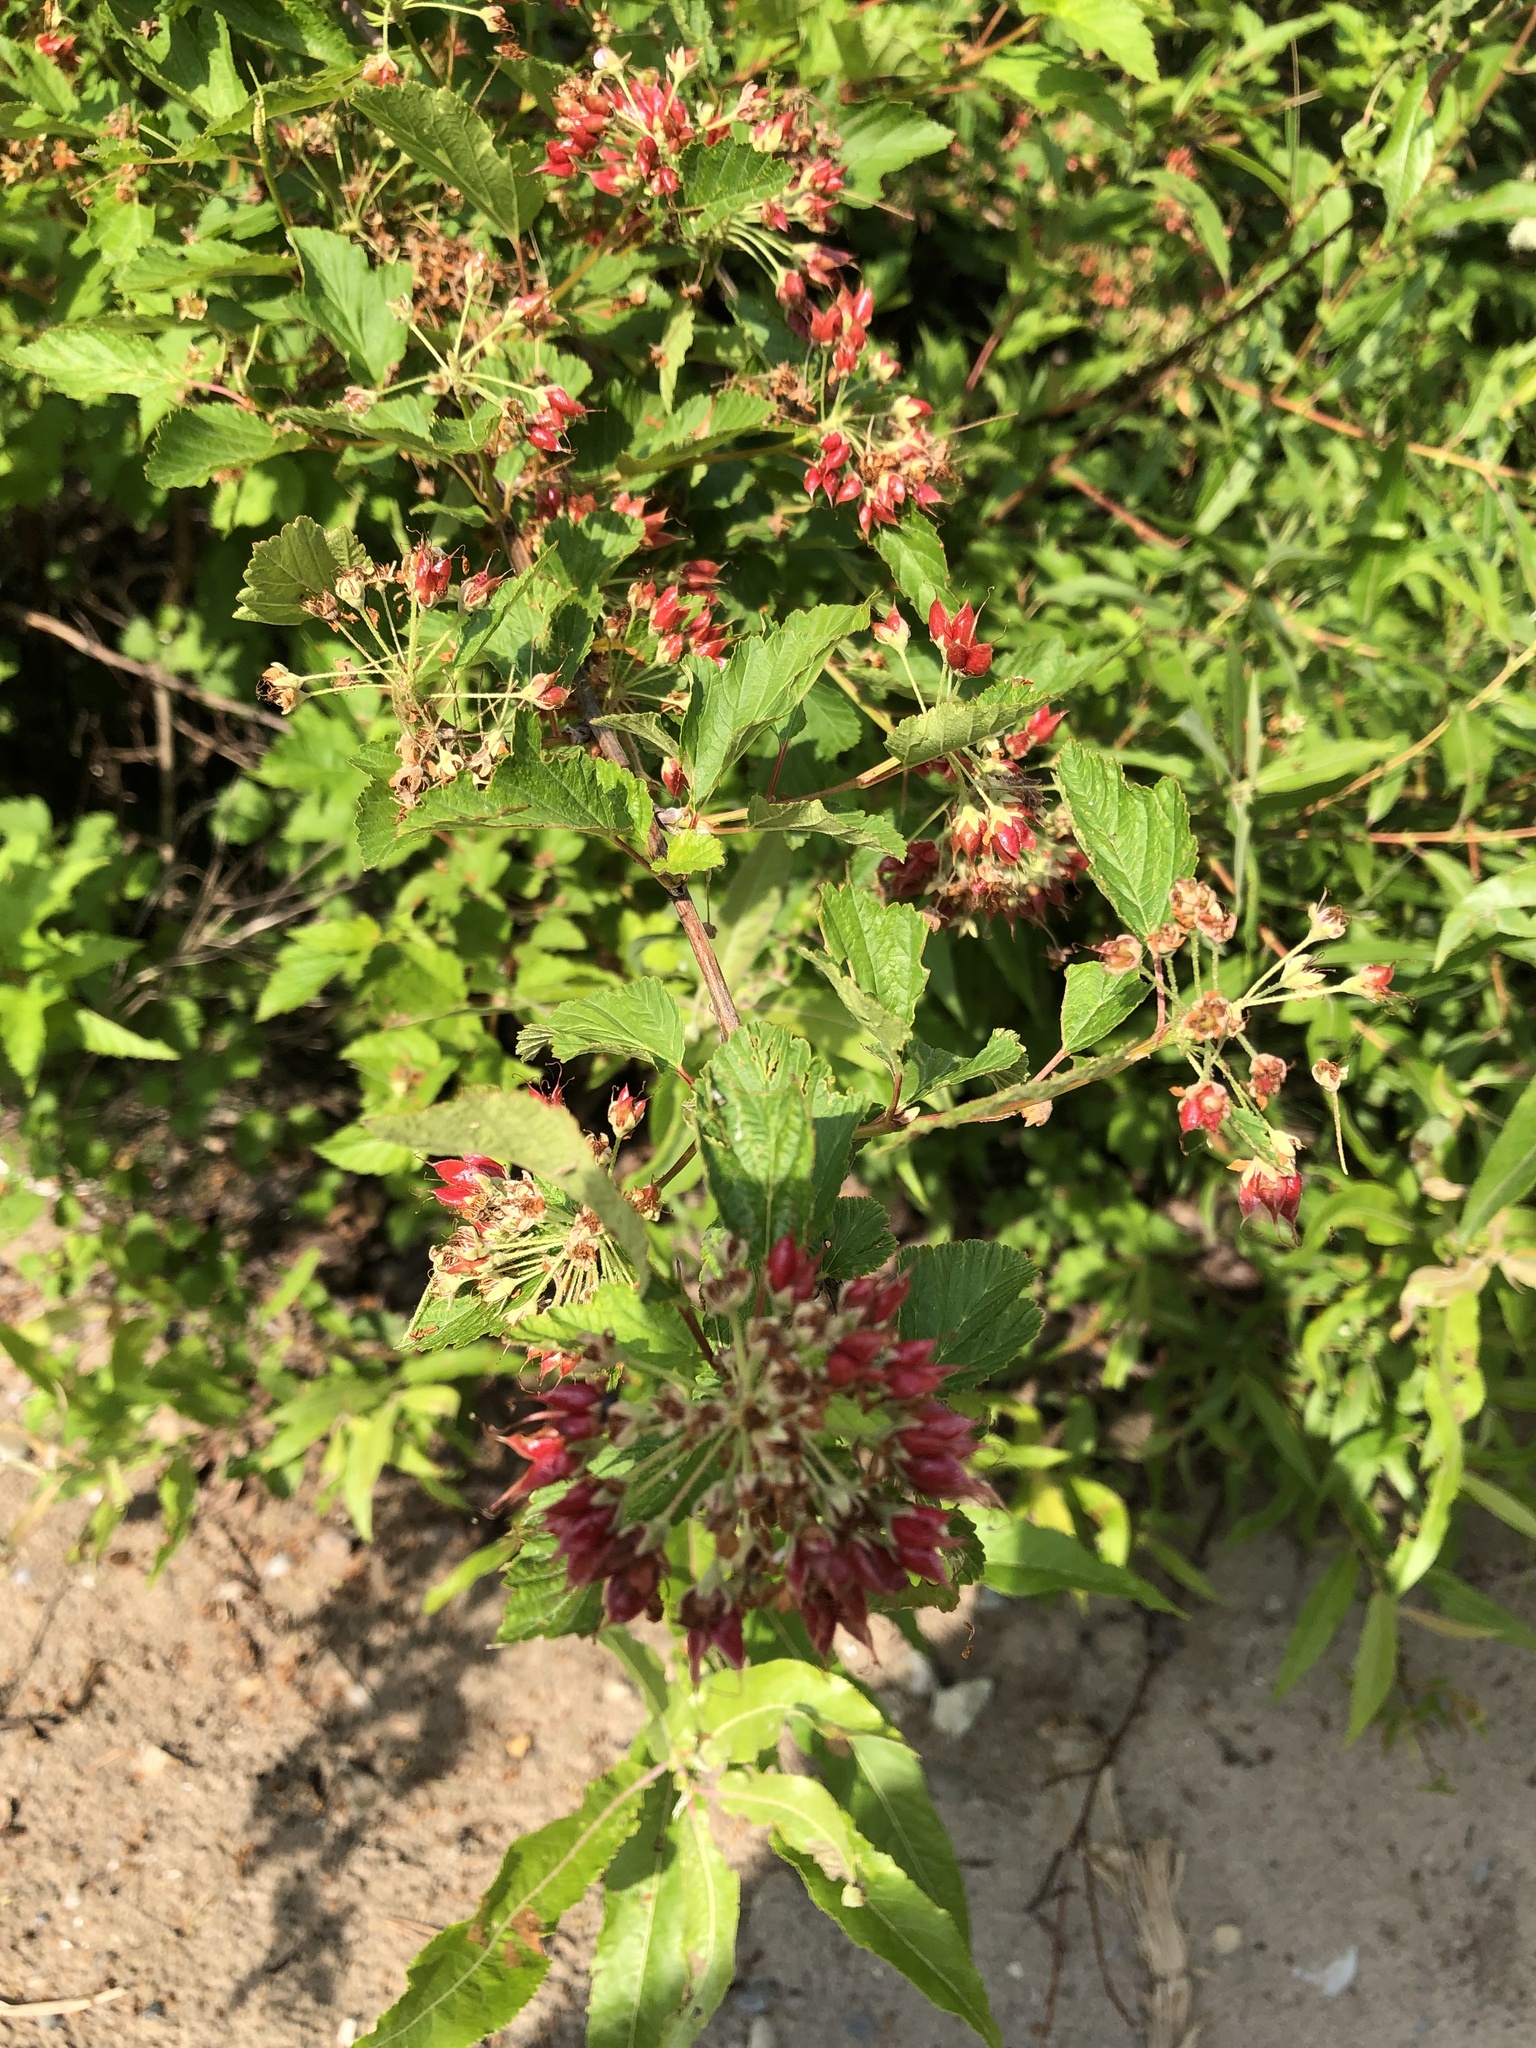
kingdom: Plantae
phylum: Tracheophyta
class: Magnoliopsida
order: Rosales
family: Rosaceae
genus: Physocarpus
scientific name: Physocarpus opulifolius
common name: Ninebark
